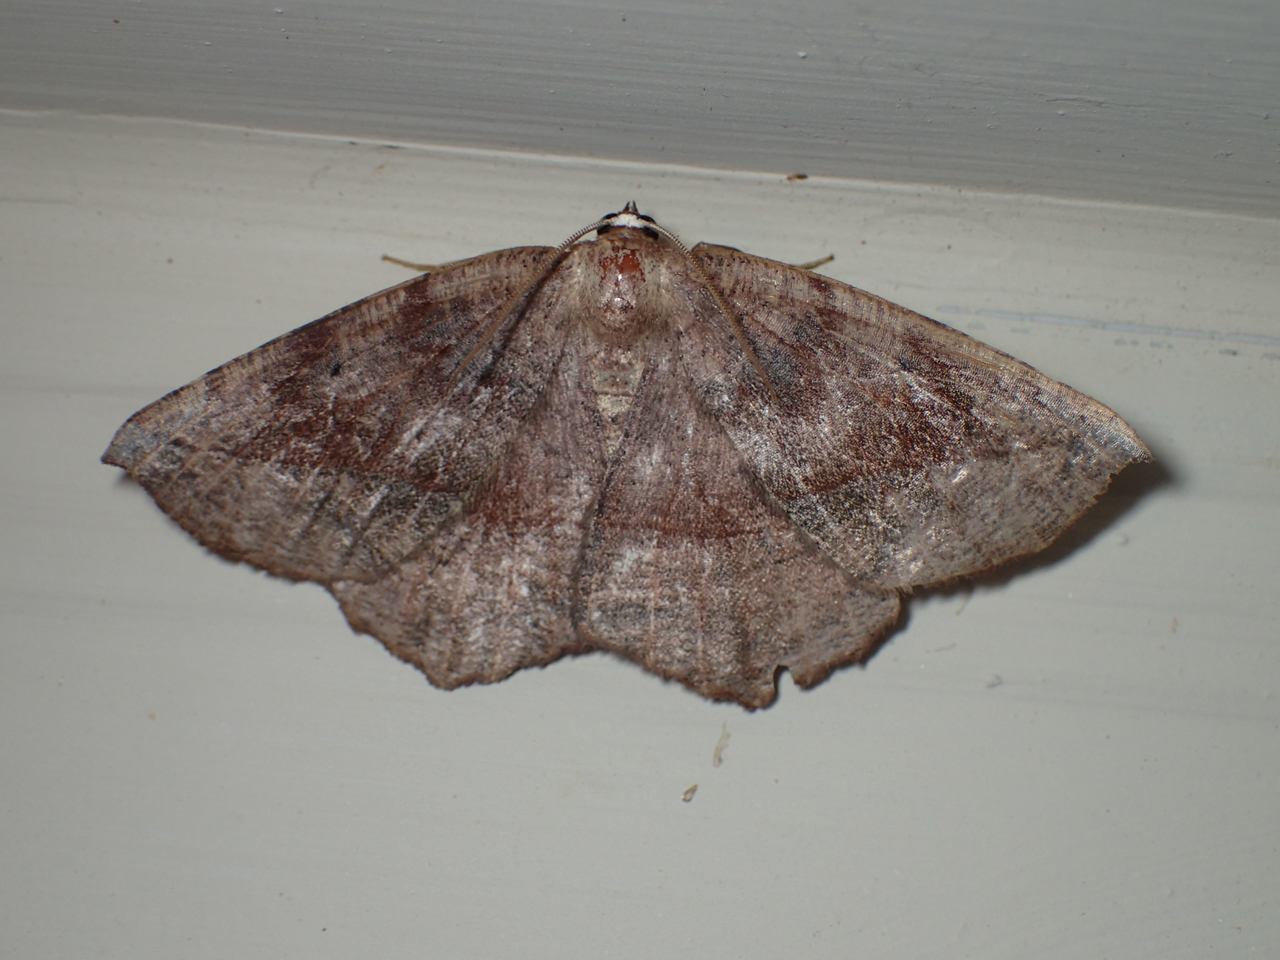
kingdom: Animalia
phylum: Arthropoda
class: Insecta
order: Lepidoptera
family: Geometridae
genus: Eutrapela
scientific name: Eutrapela clemataria
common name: Curved-toothed geometer
